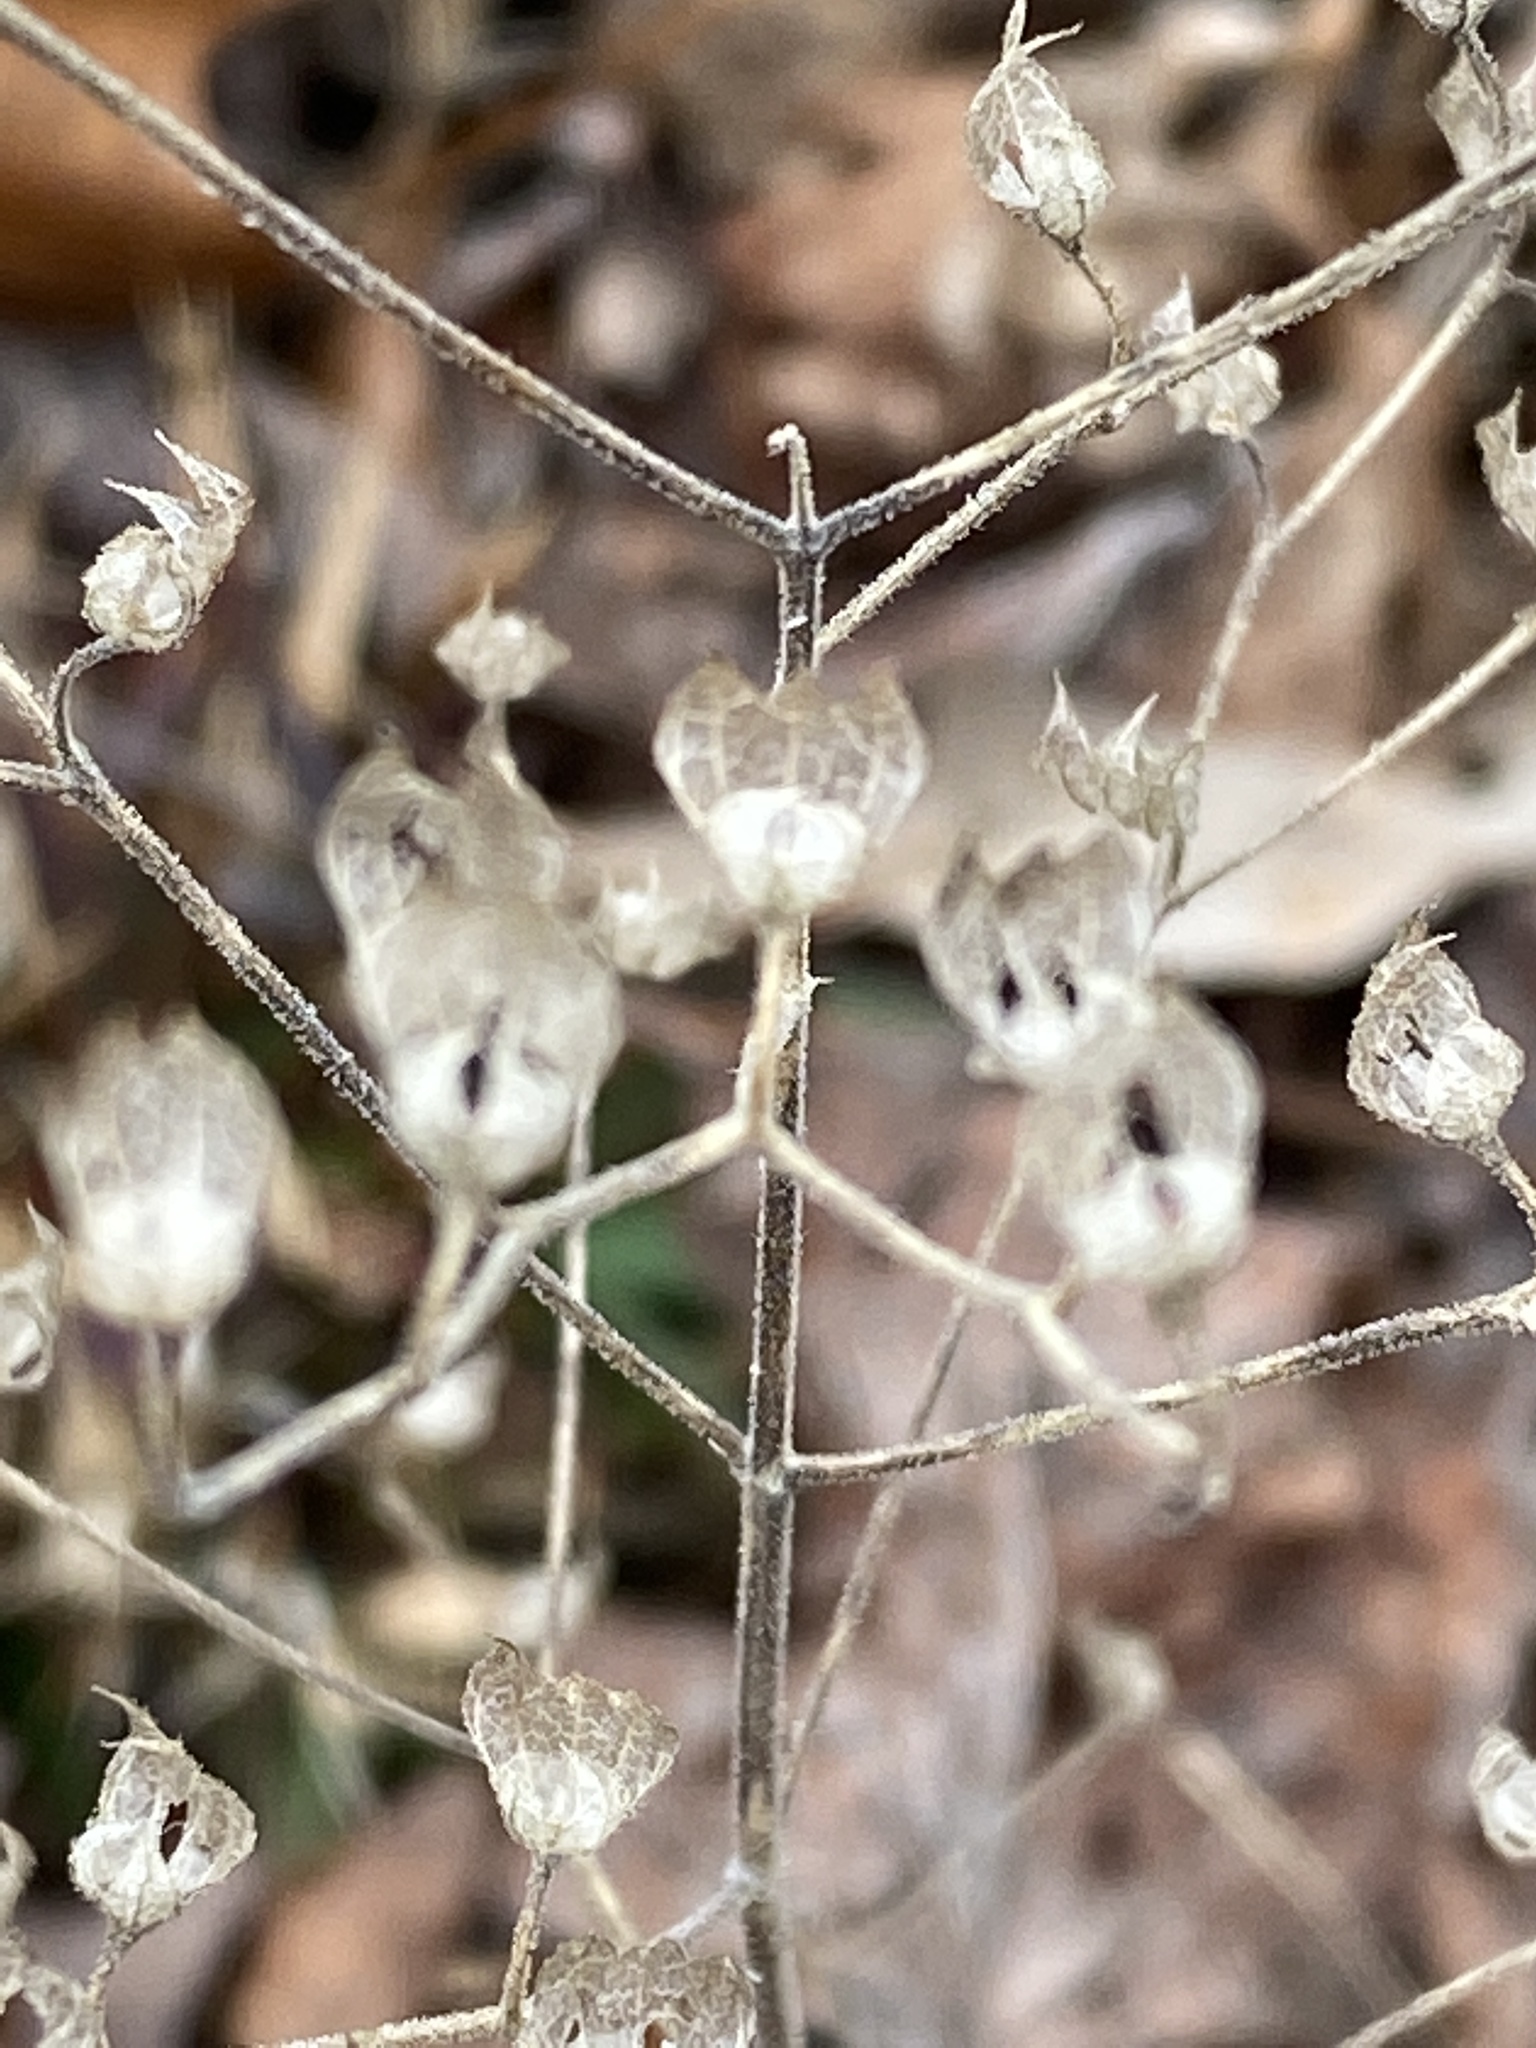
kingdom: Plantae
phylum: Tracheophyta
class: Magnoliopsida
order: Lamiales
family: Lamiaceae
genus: Trichostema
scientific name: Trichostema dichotomum
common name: Bastard pennyroyal
